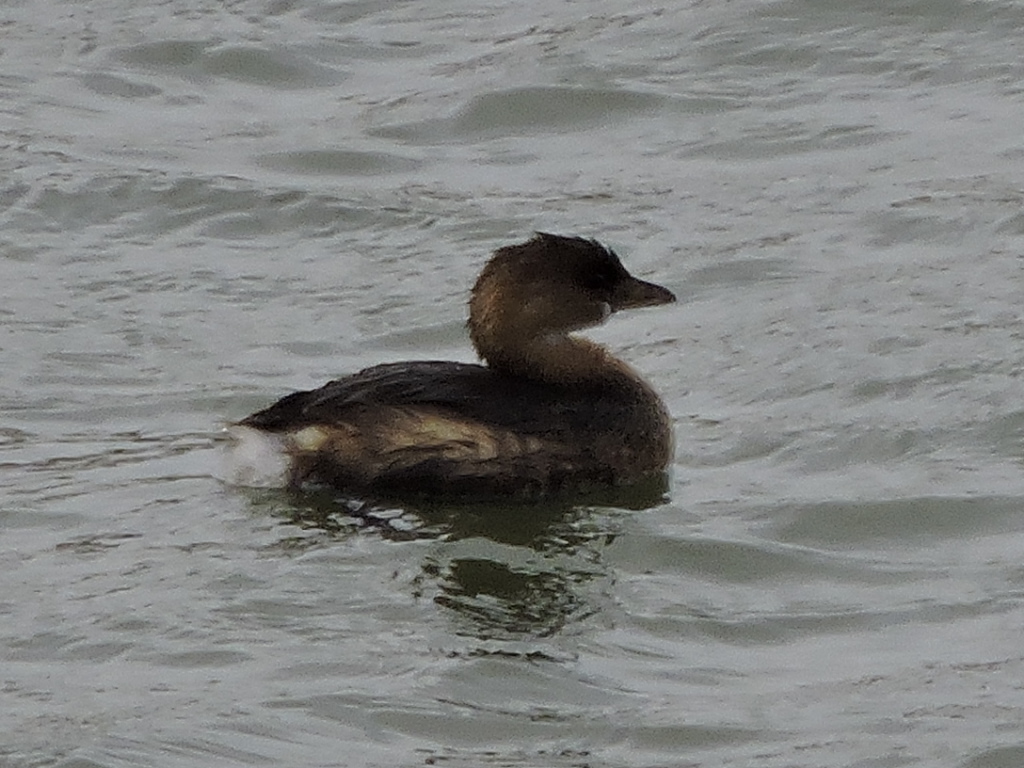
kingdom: Animalia
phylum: Chordata
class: Aves
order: Podicipediformes
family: Podicipedidae
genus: Podilymbus
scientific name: Podilymbus podiceps
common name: Pied-billed grebe
